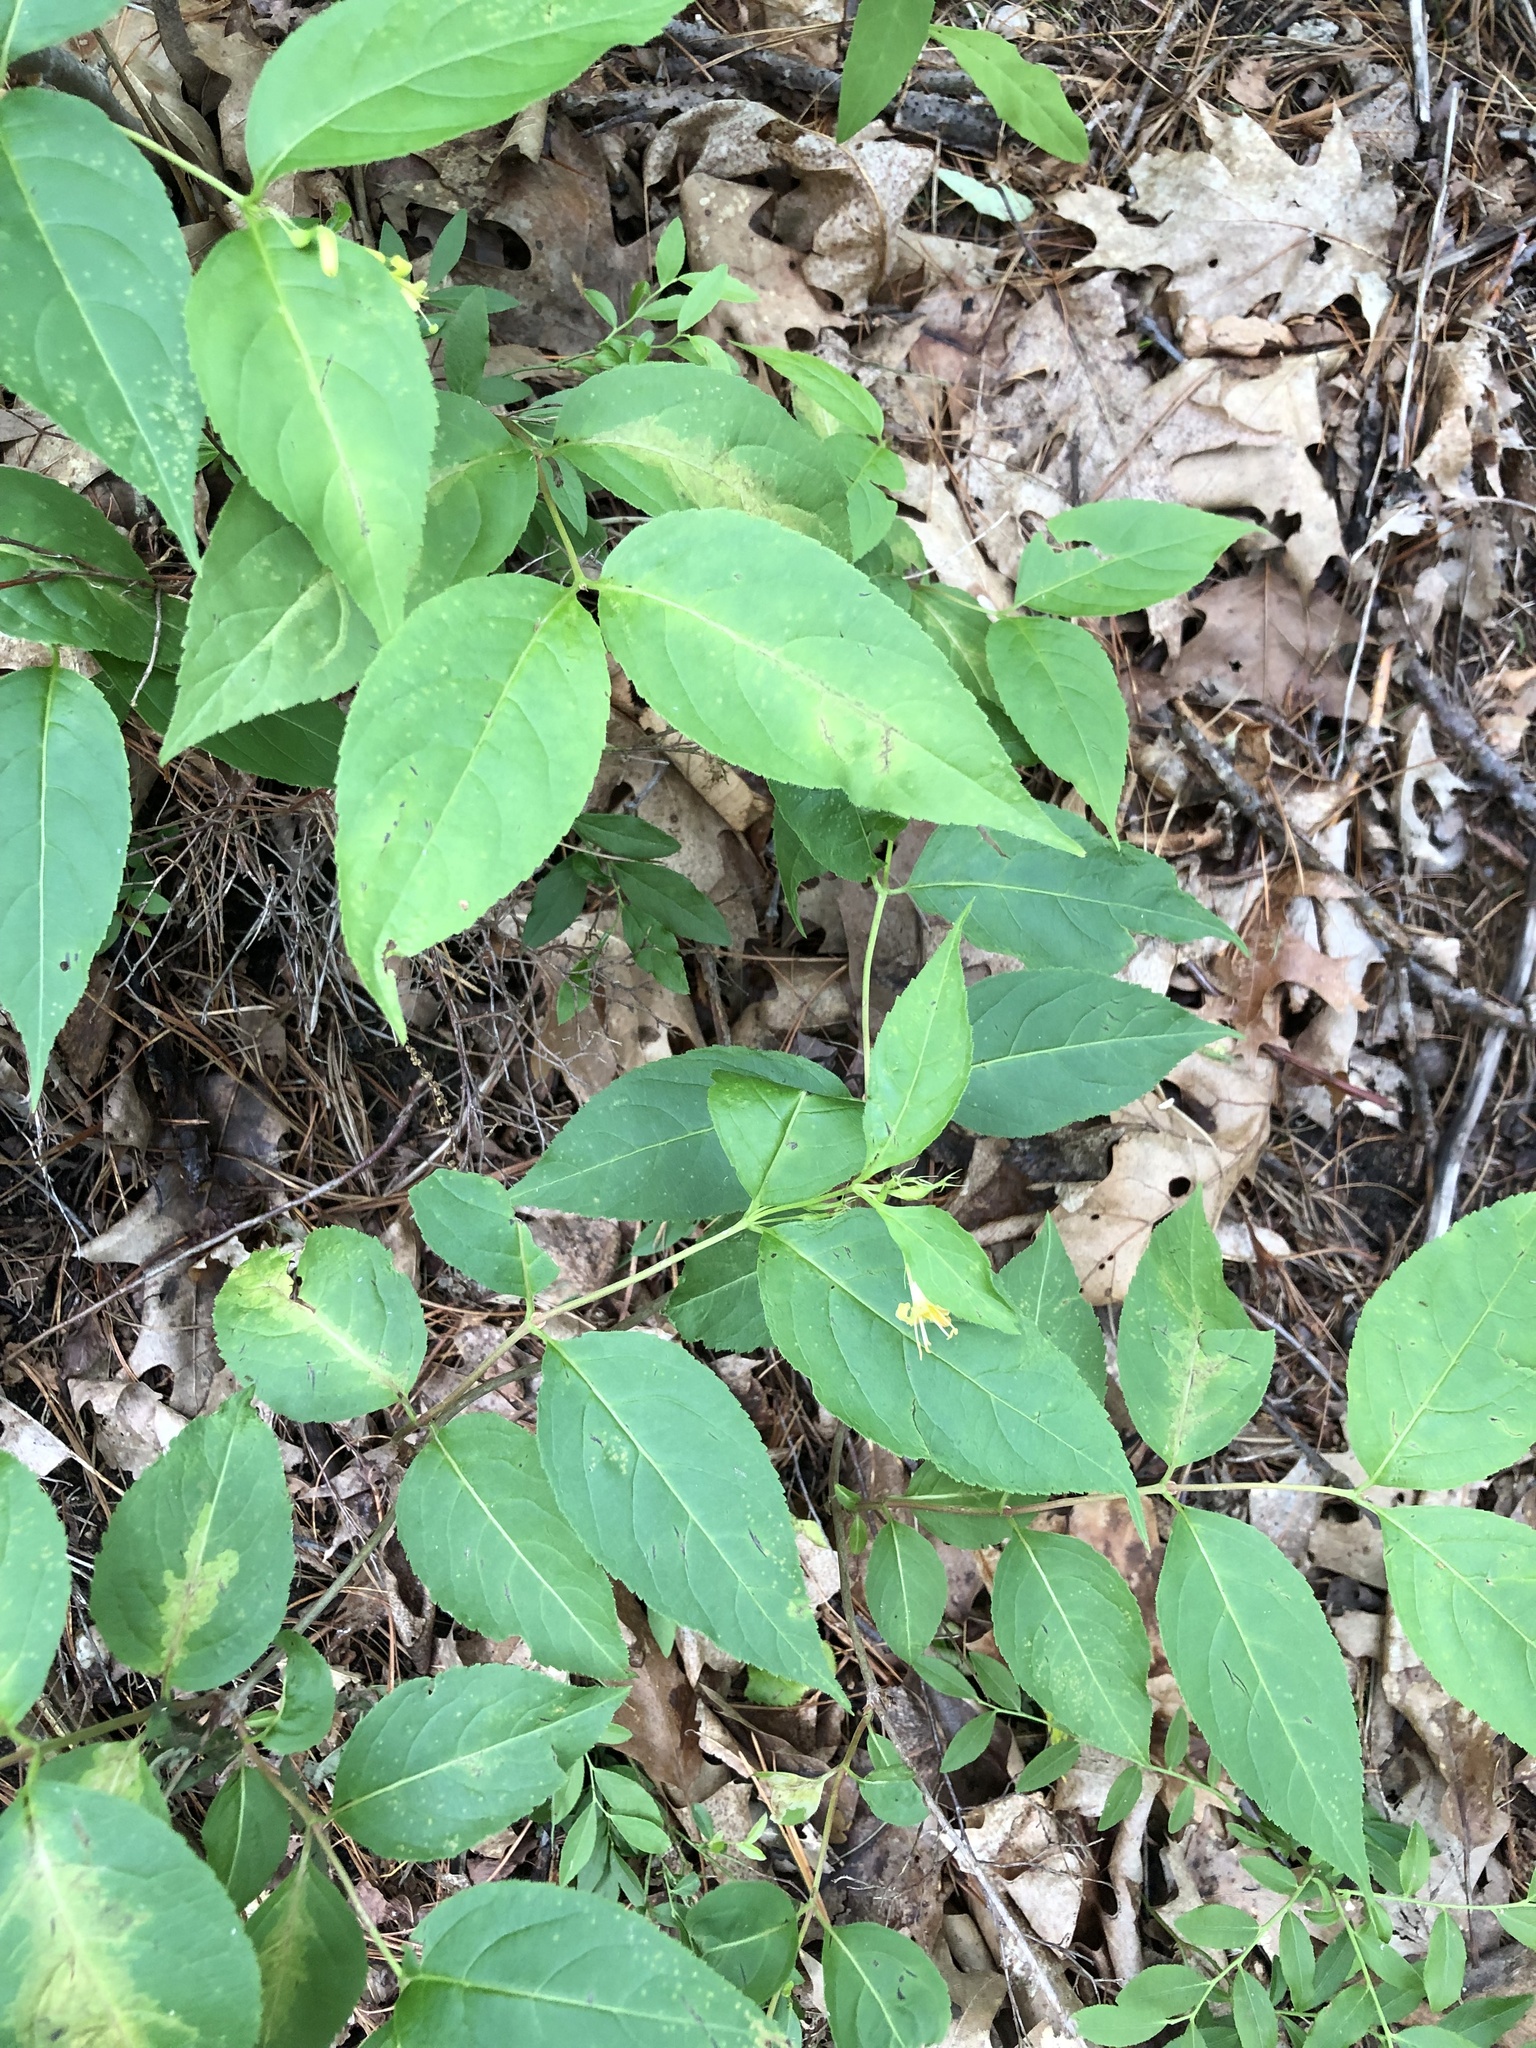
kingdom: Plantae
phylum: Tracheophyta
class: Magnoliopsida
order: Dipsacales
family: Caprifoliaceae
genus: Diervilla
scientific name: Diervilla lonicera
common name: Bush-honeysuckle
